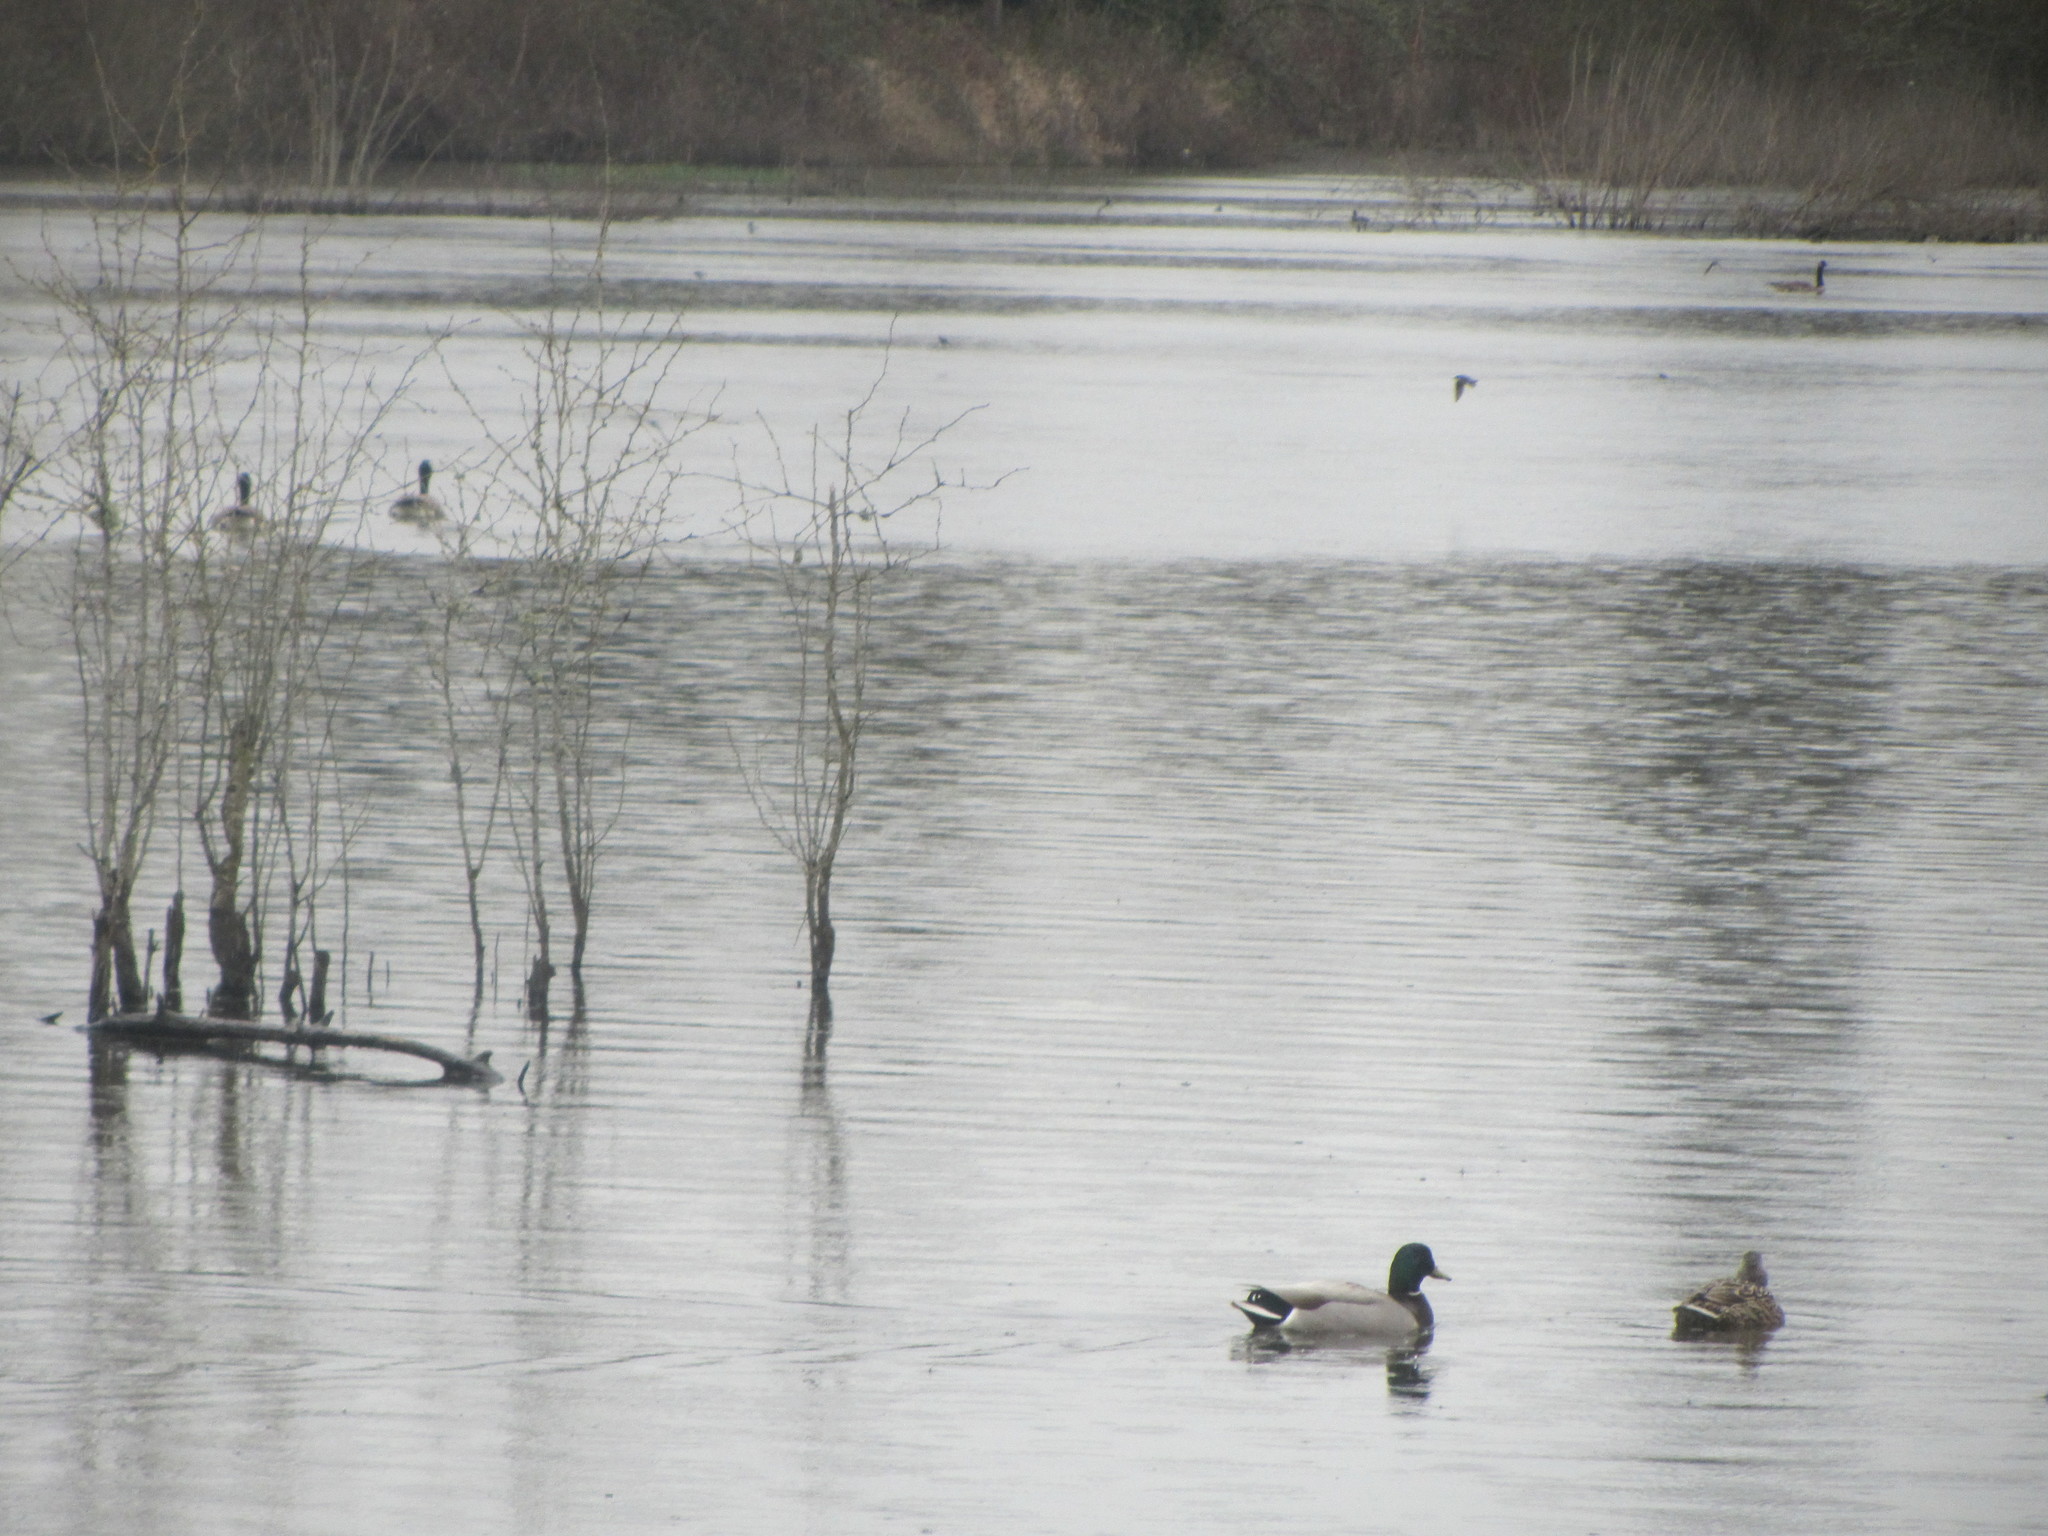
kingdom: Animalia
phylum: Chordata
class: Aves
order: Anseriformes
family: Anatidae
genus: Anas
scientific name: Anas platyrhynchos
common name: Mallard
